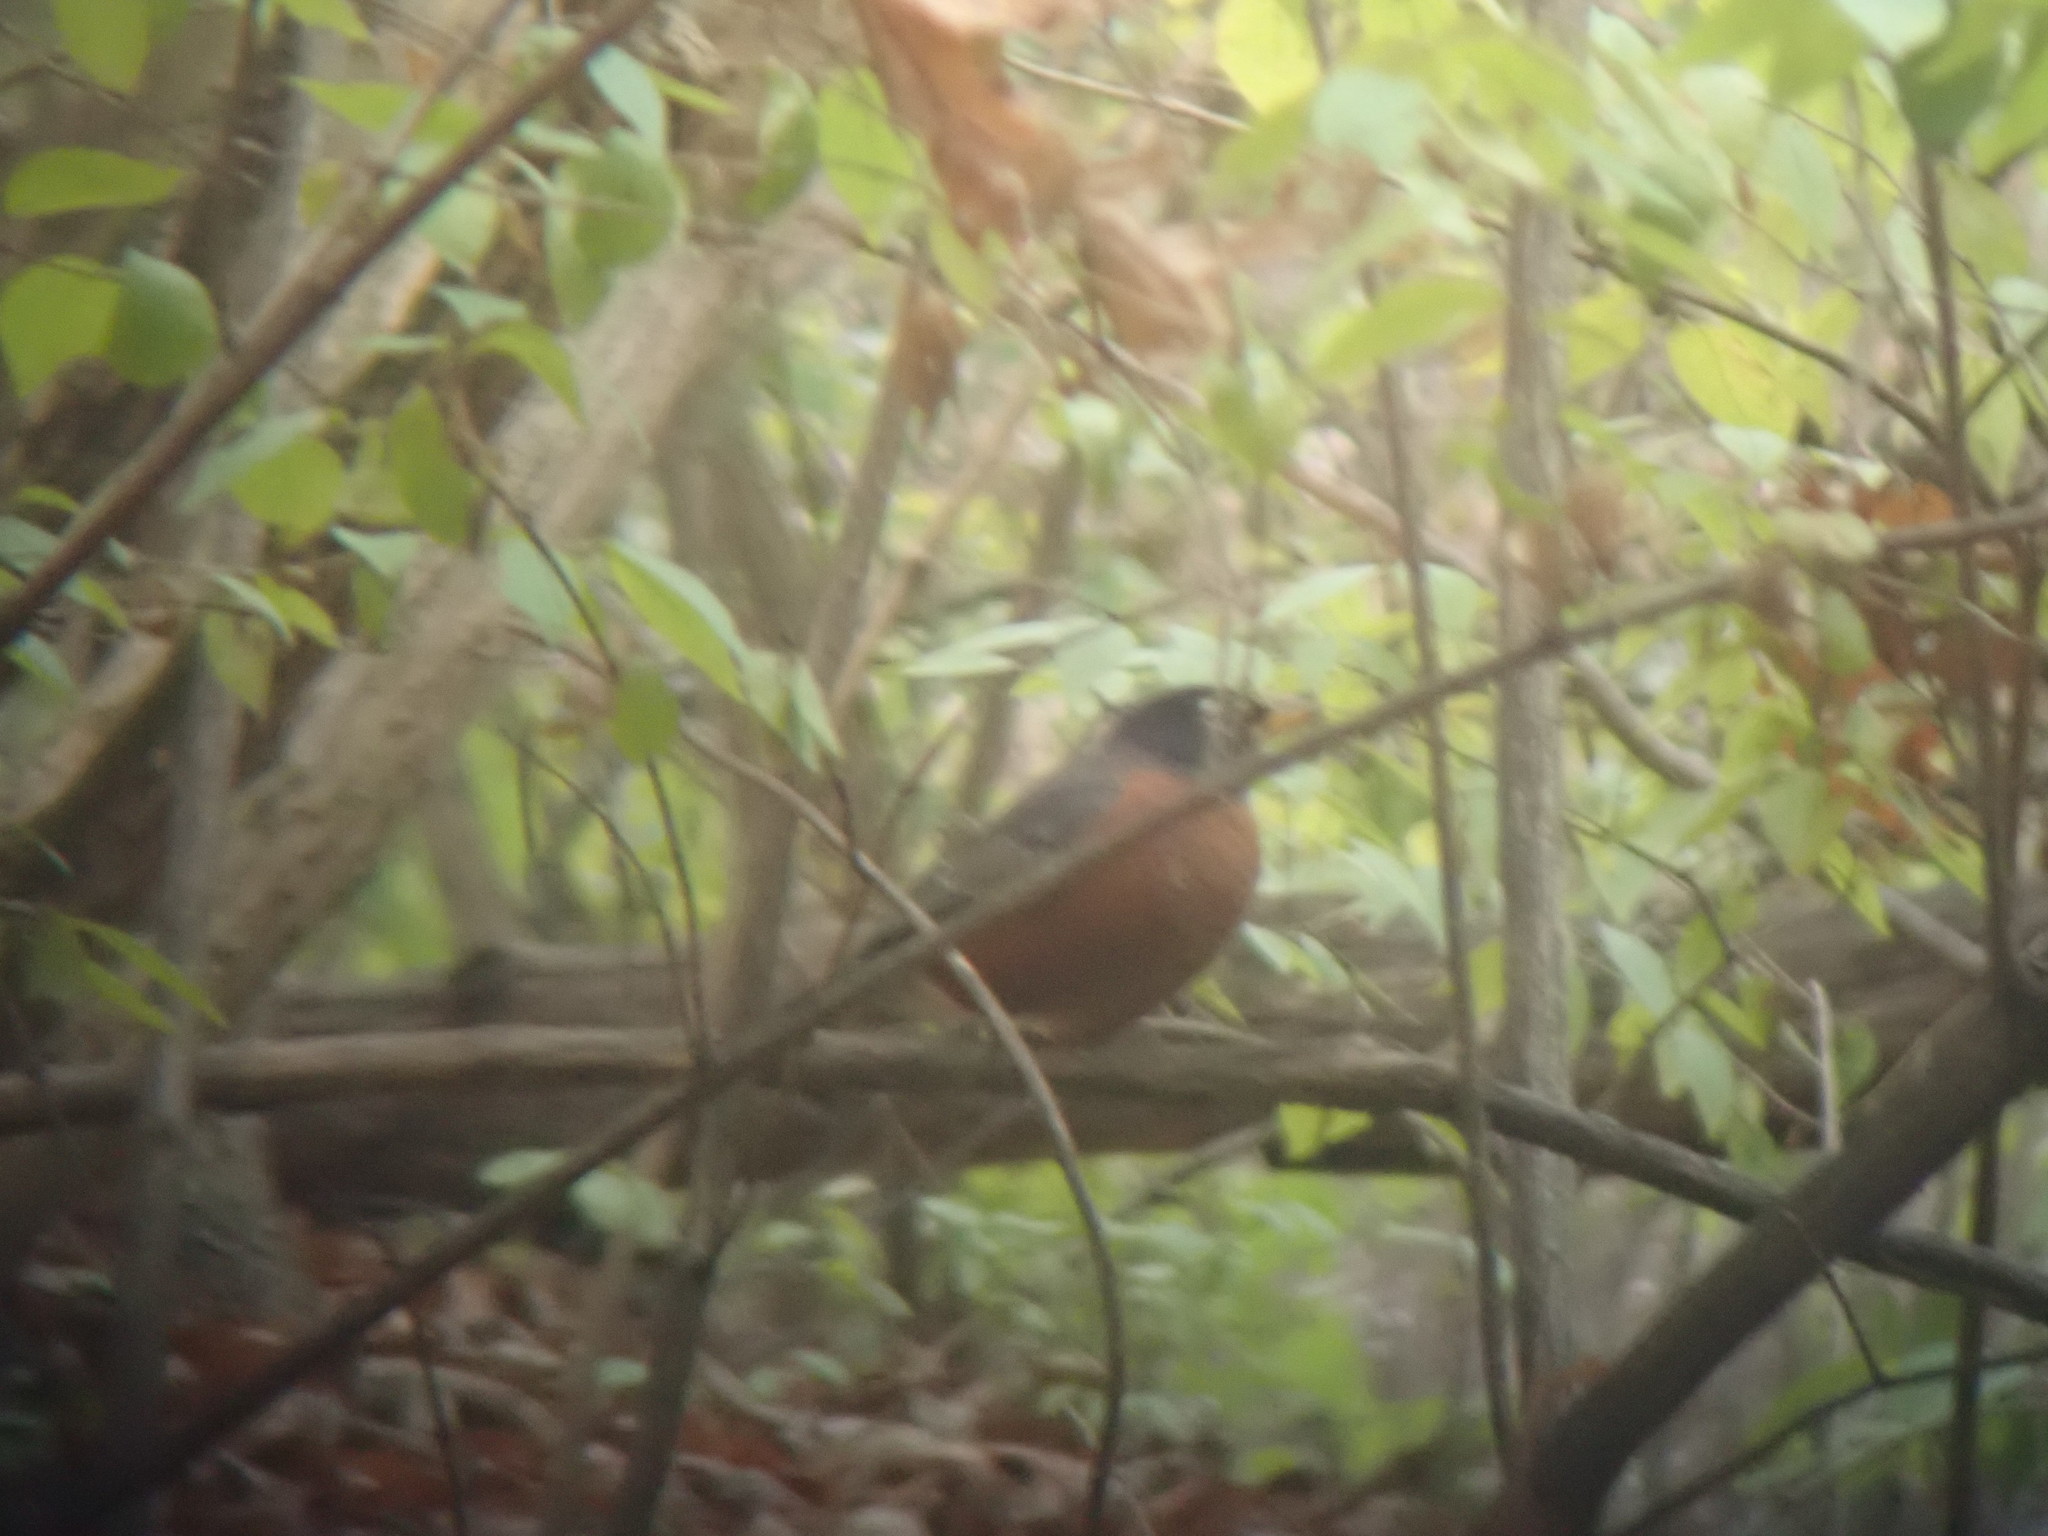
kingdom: Animalia
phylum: Chordata
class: Aves
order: Passeriformes
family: Turdidae
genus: Turdus
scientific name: Turdus migratorius
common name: American robin
